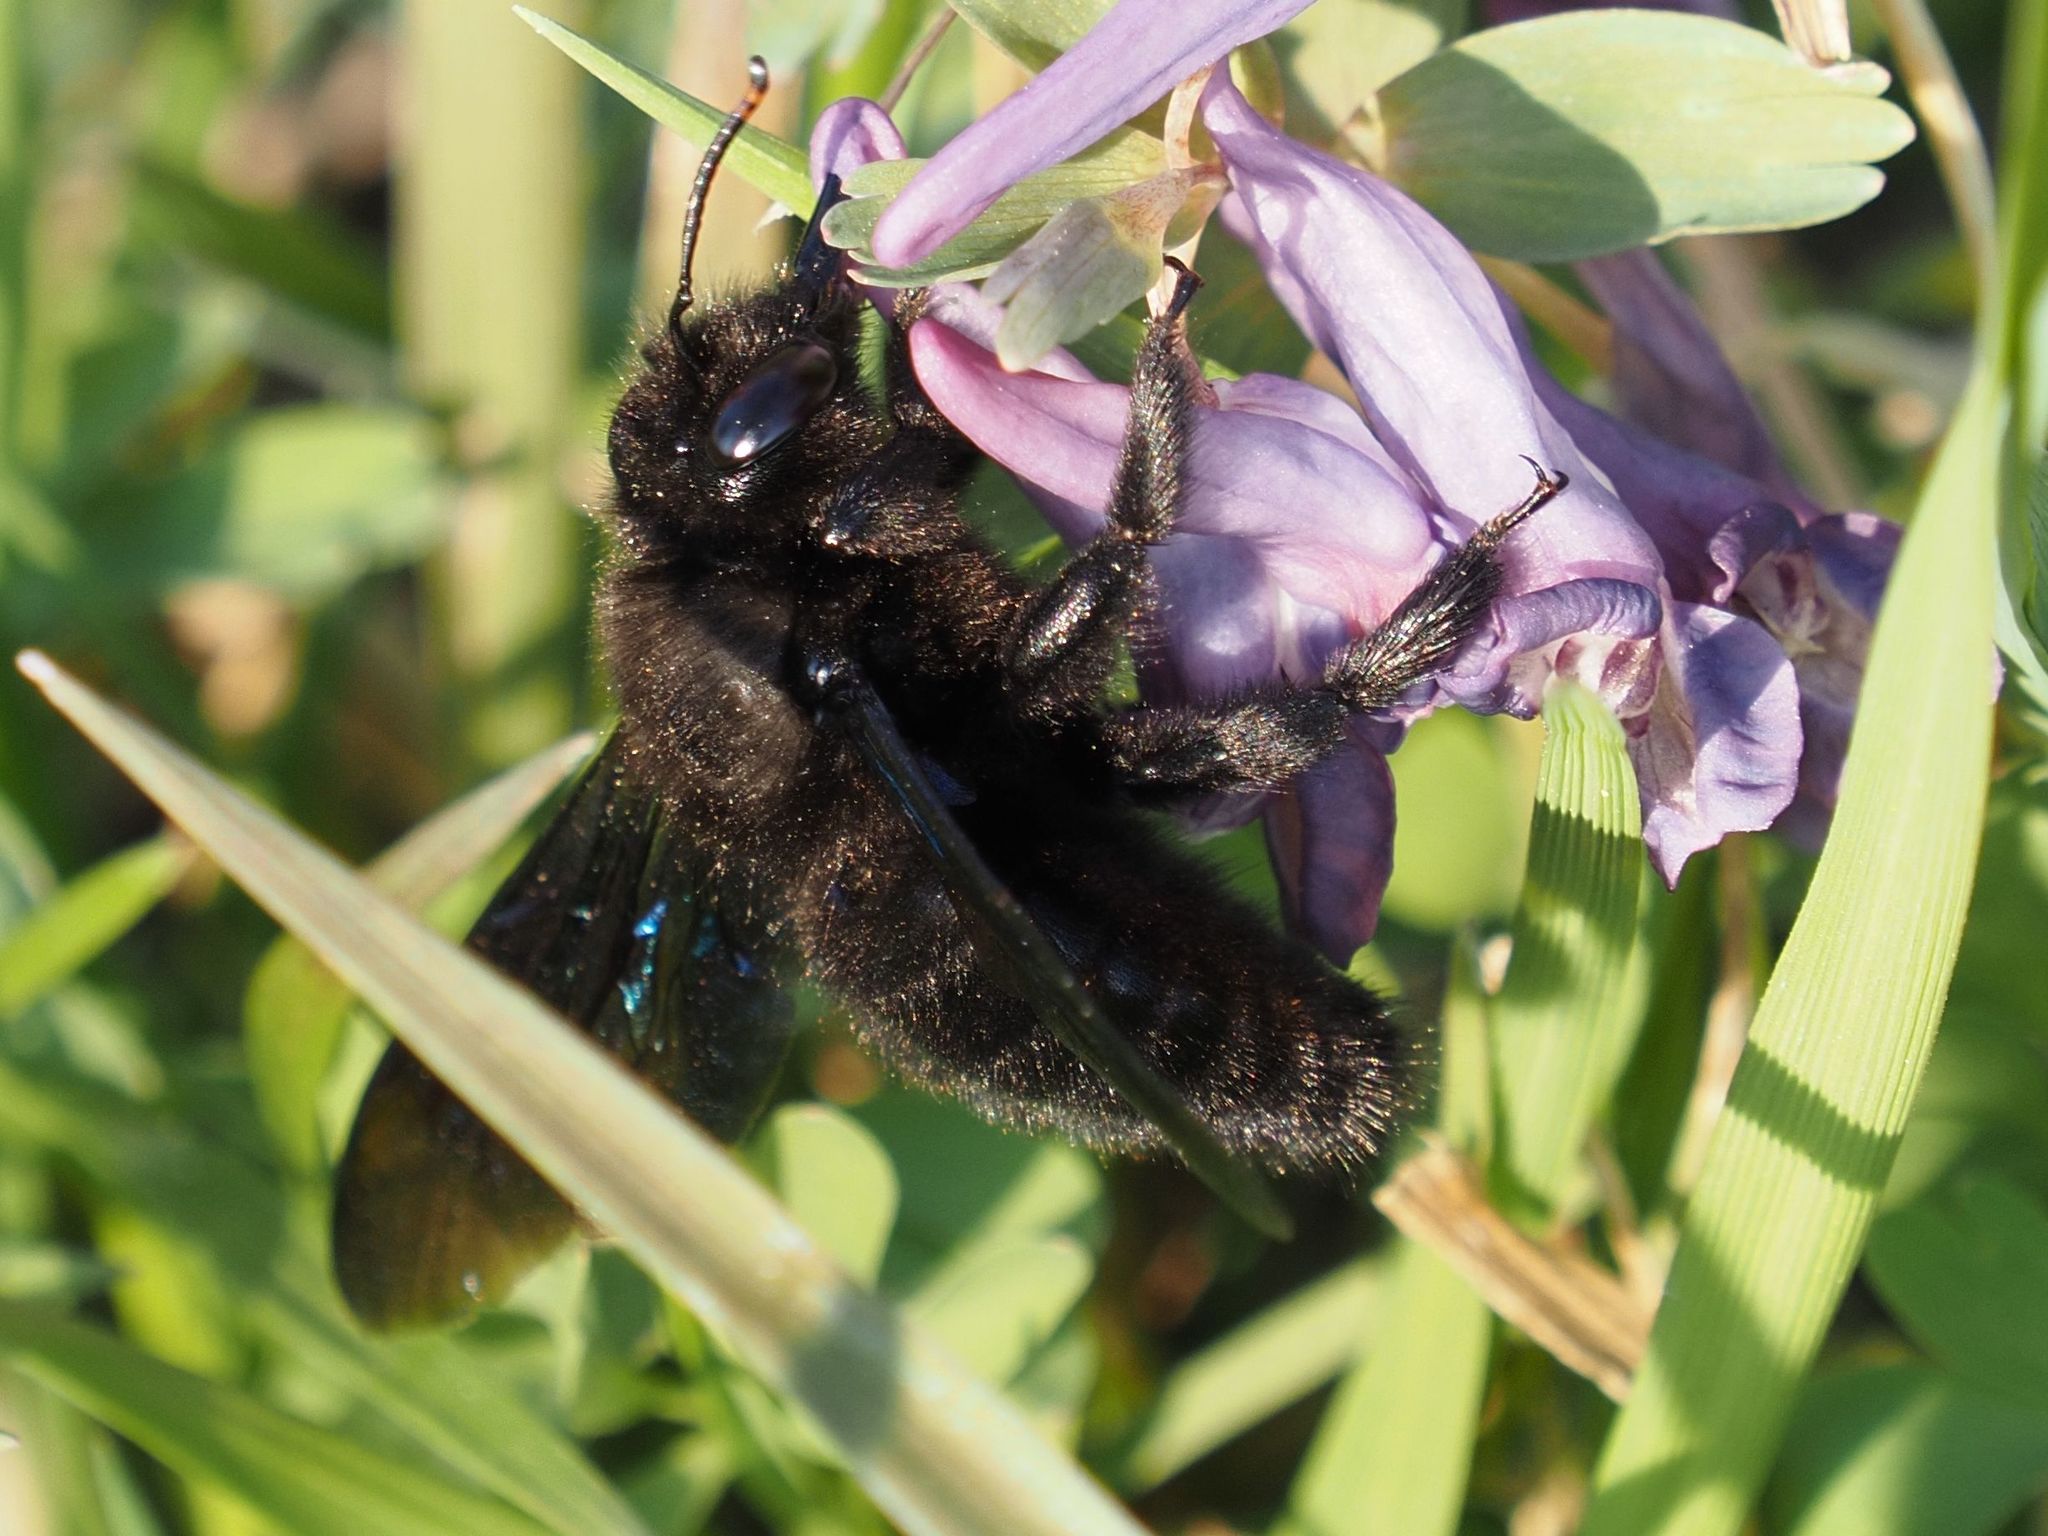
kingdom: Animalia
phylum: Arthropoda
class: Insecta
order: Hymenoptera
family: Apidae
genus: Xylocopa
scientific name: Xylocopa violacea
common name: Violet carpenter bee
